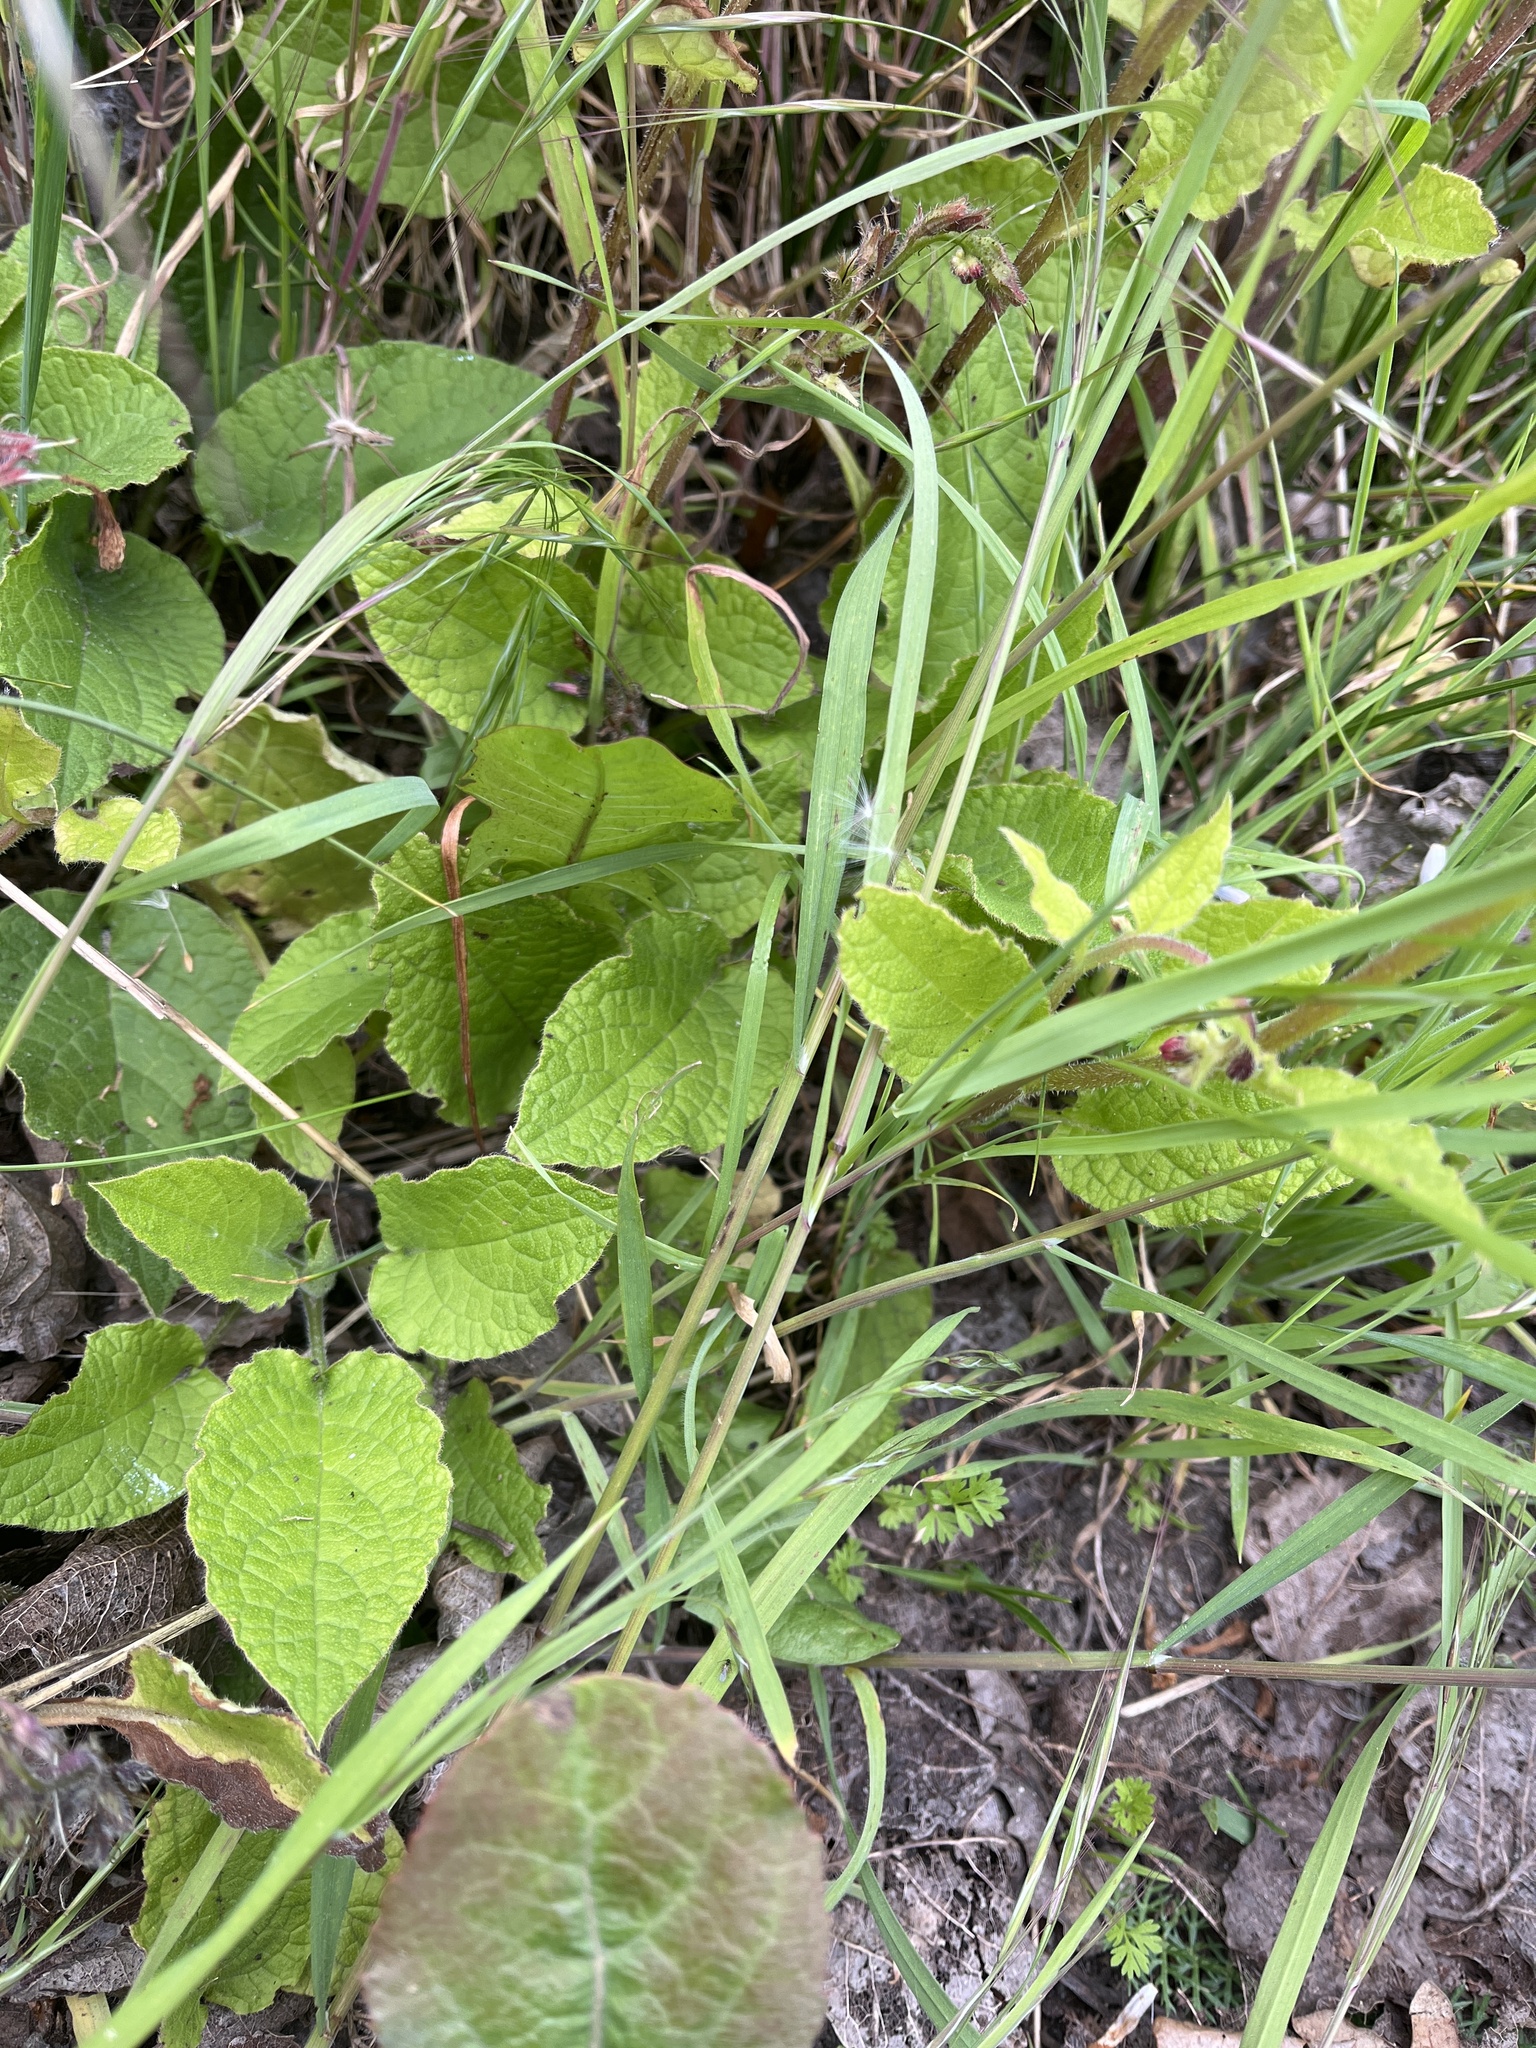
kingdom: Plantae
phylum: Tracheophyta
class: Magnoliopsida
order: Boraginales
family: Boraginaceae
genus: Symphytum
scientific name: Symphytum hidcotense
